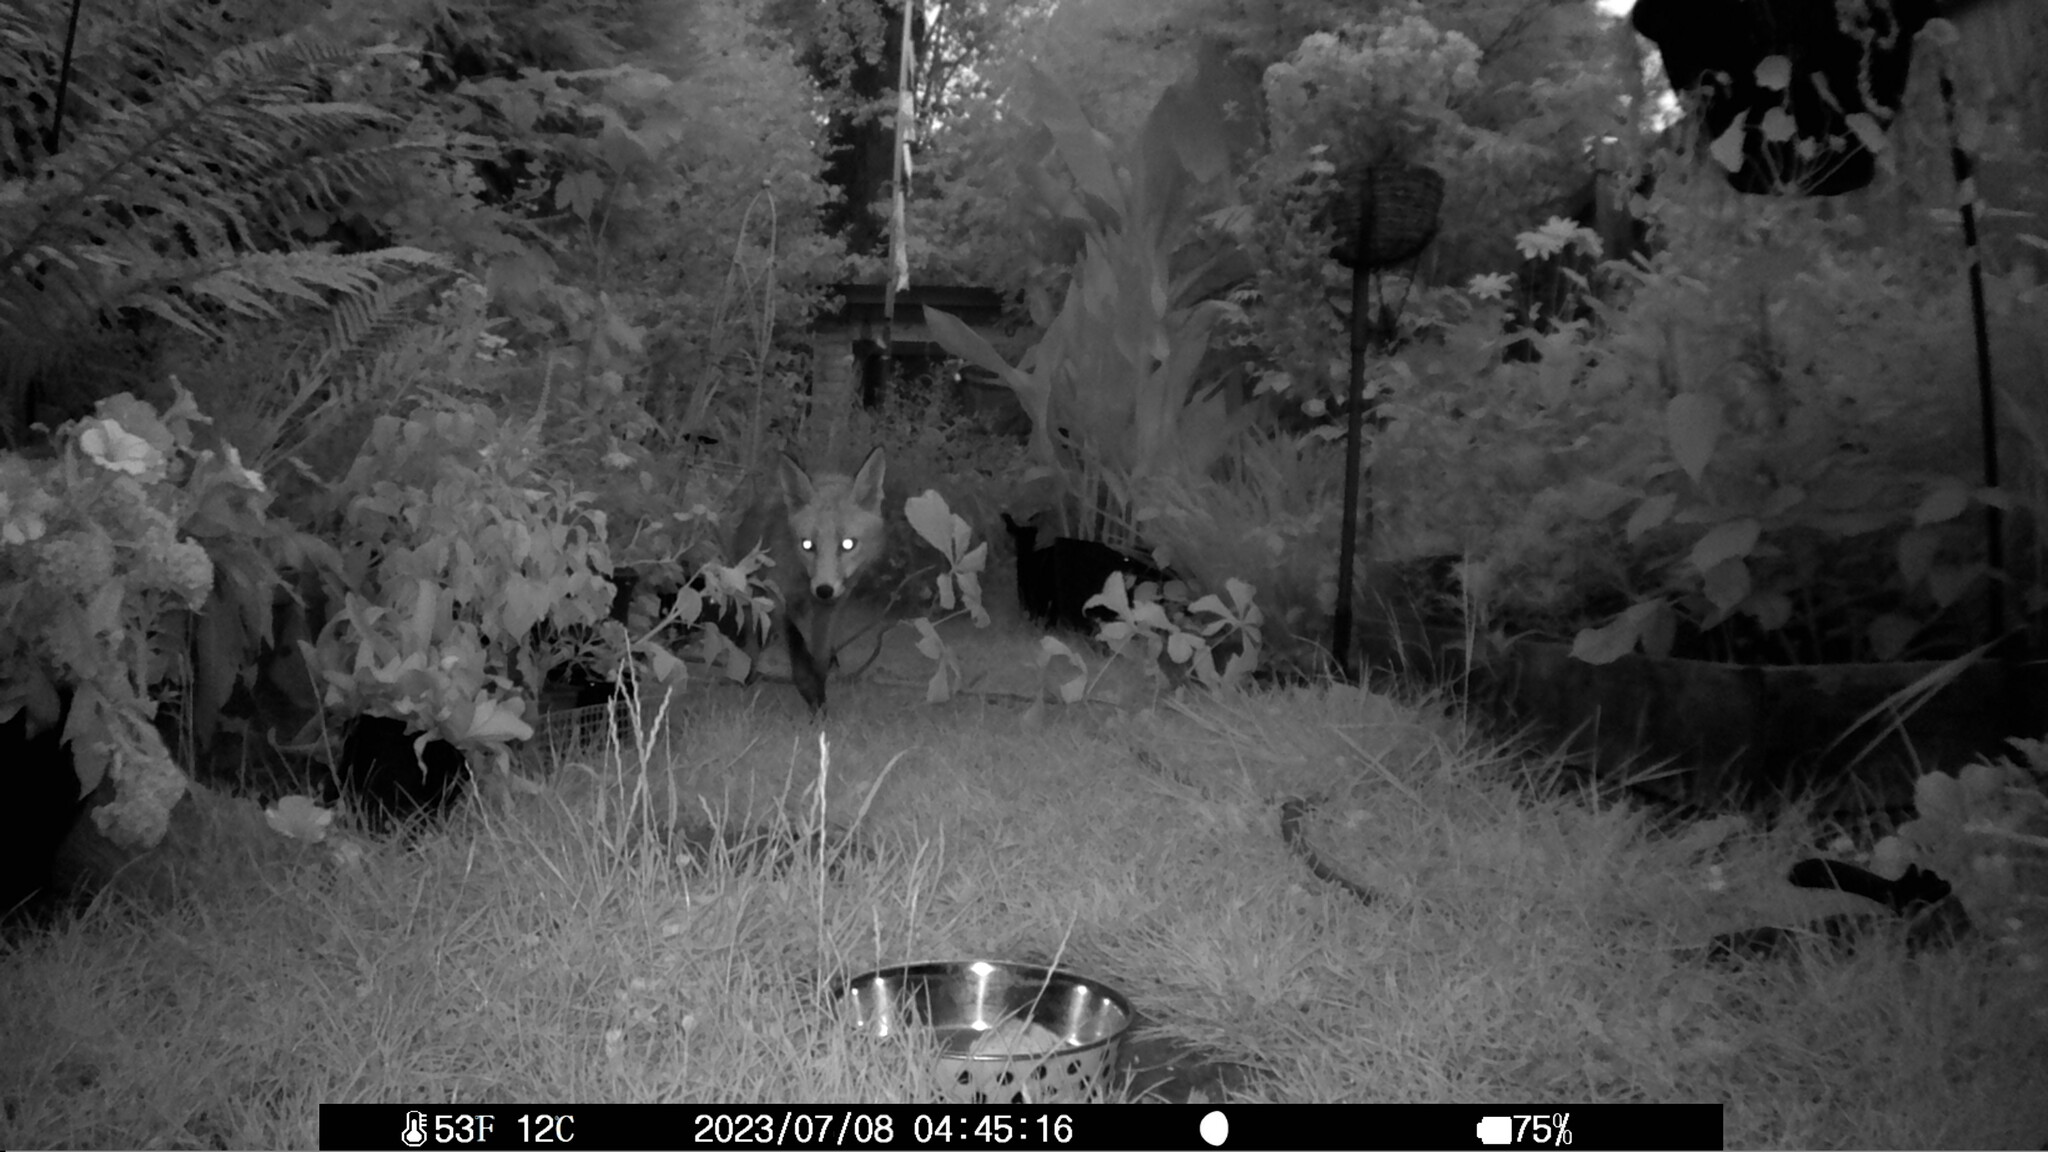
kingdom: Animalia
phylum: Chordata
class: Mammalia
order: Carnivora
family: Canidae
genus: Vulpes
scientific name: Vulpes vulpes
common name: Red fox
